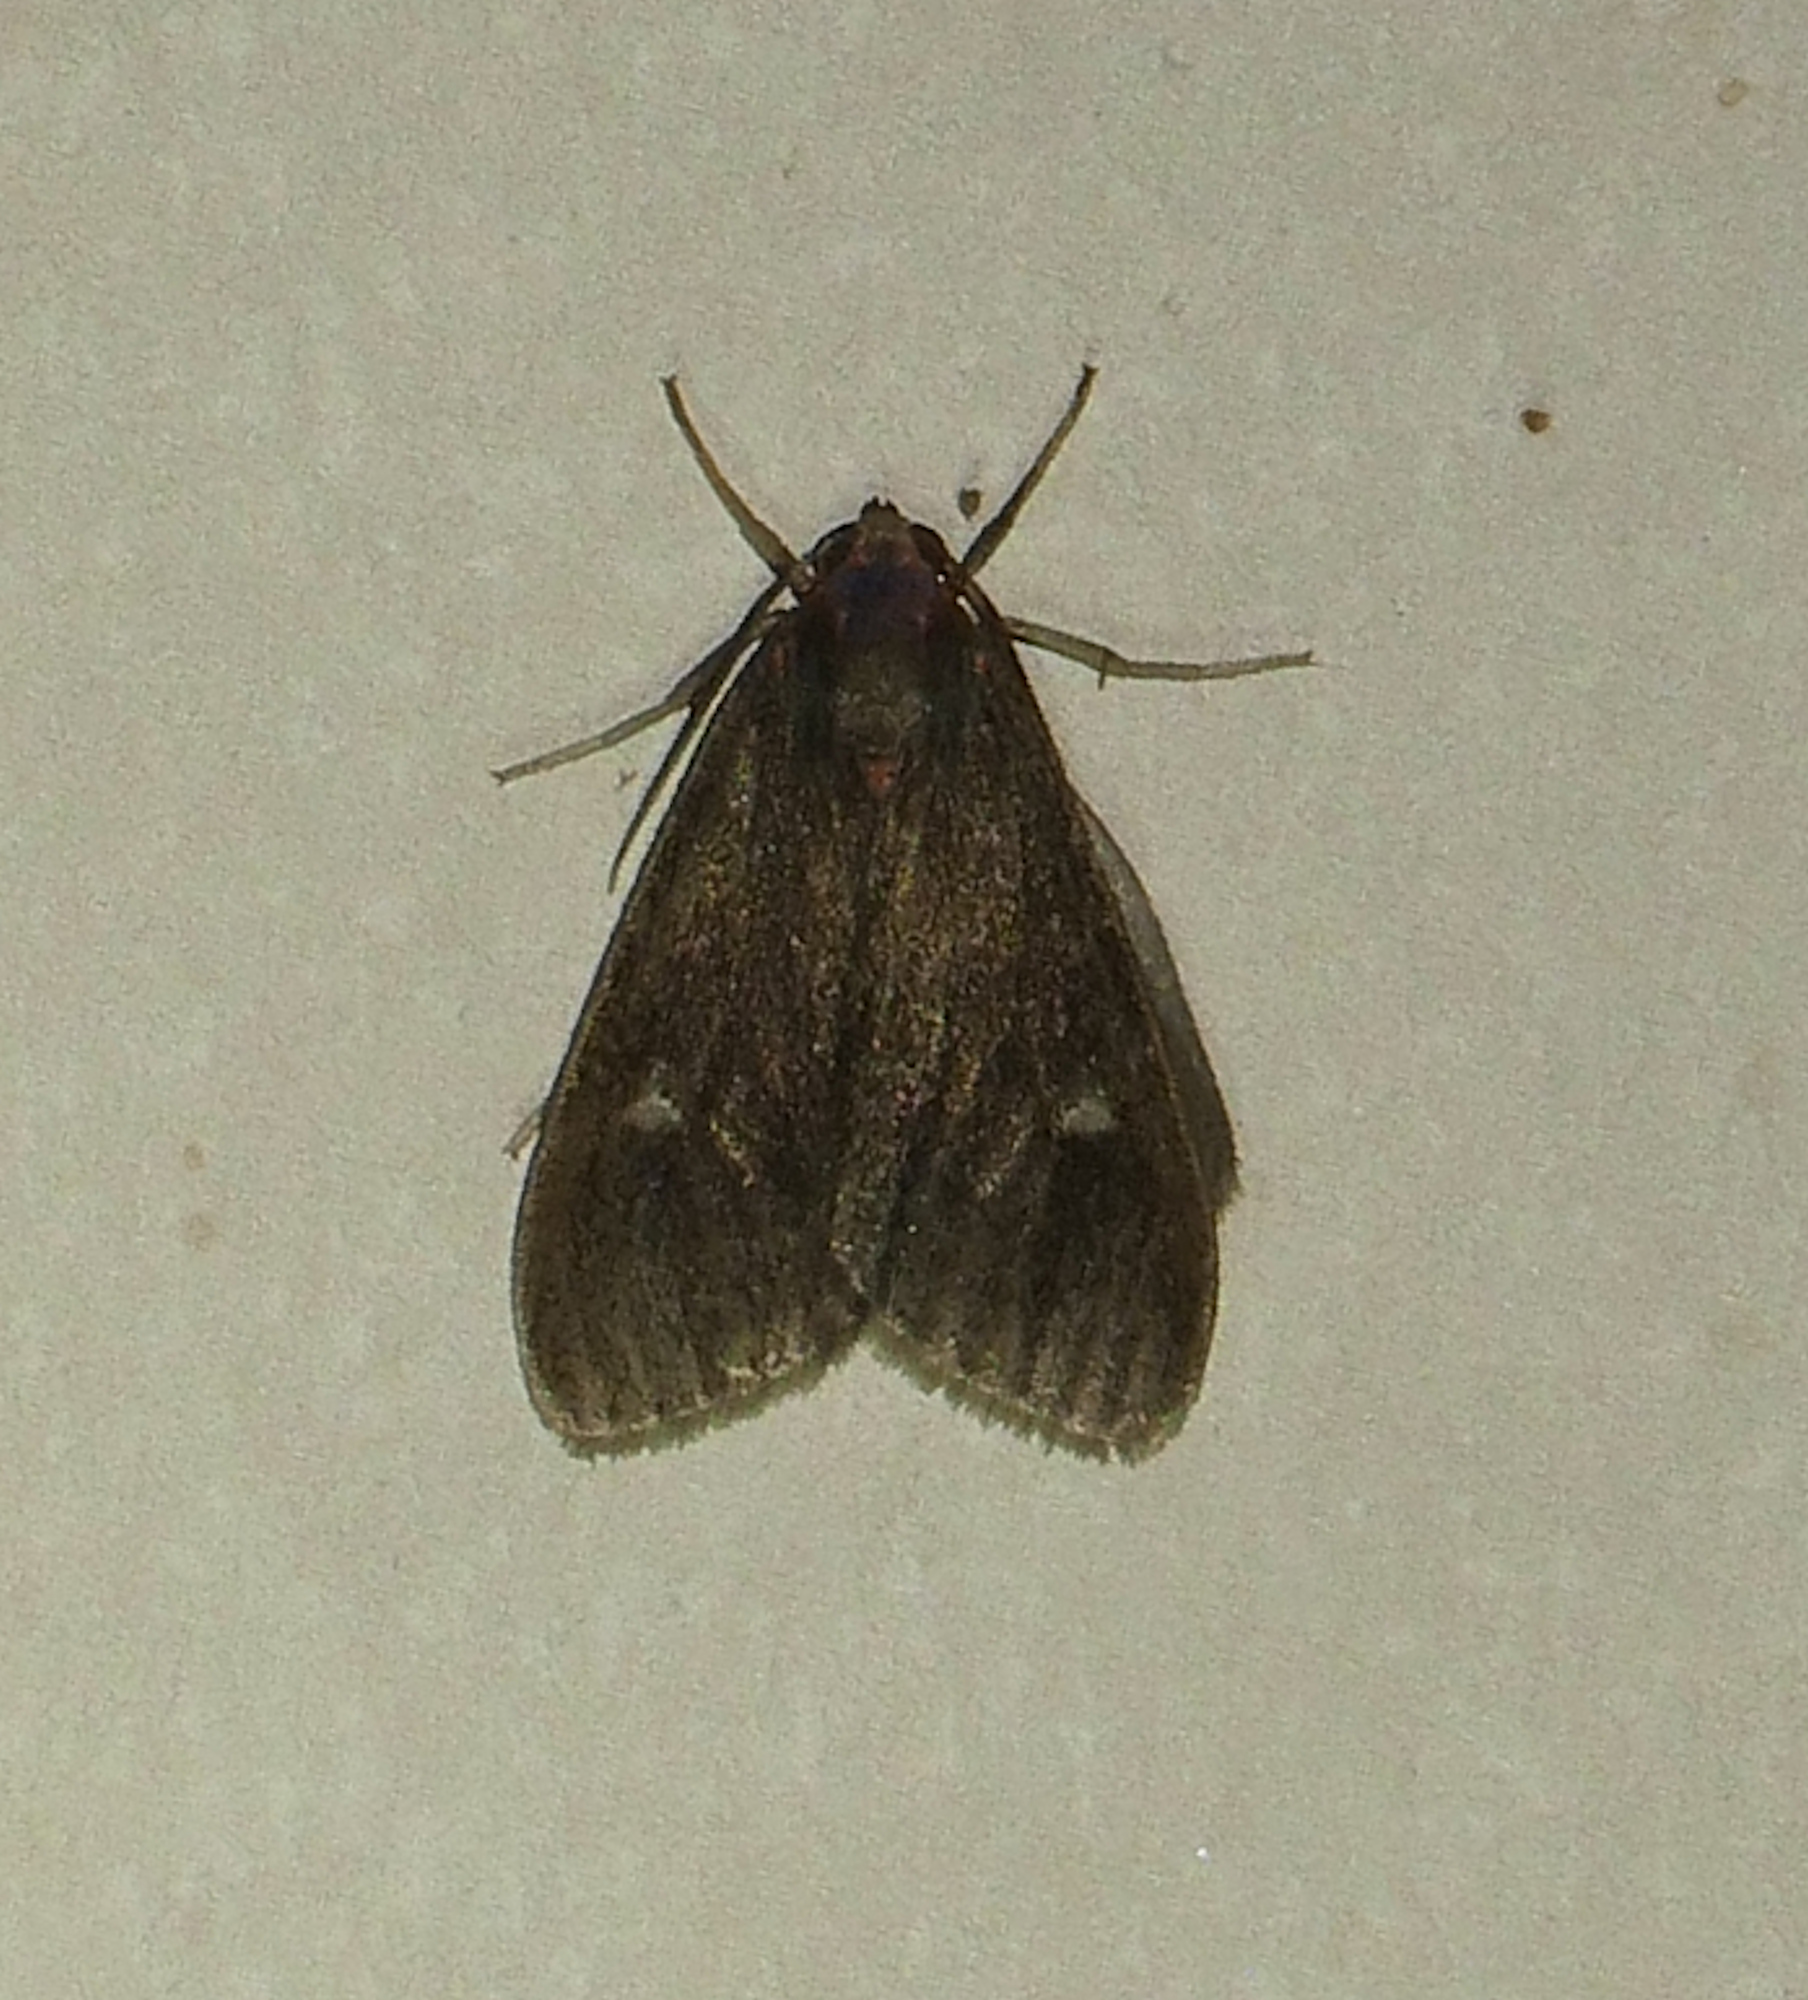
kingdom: Animalia
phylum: Arthropoda
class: Insecta
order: Lepidoptera
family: Erebidae
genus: Euchaetes
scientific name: Euchaetes zella
